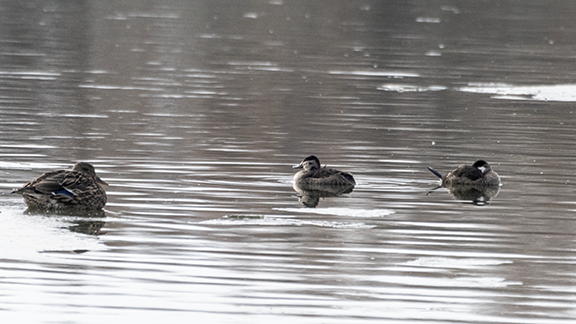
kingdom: Animalia
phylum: Chordata
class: Aves
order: Anseriformes
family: Anatidae
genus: Oxyura
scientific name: Oxyura jamaicensis
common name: Ruddy duck
